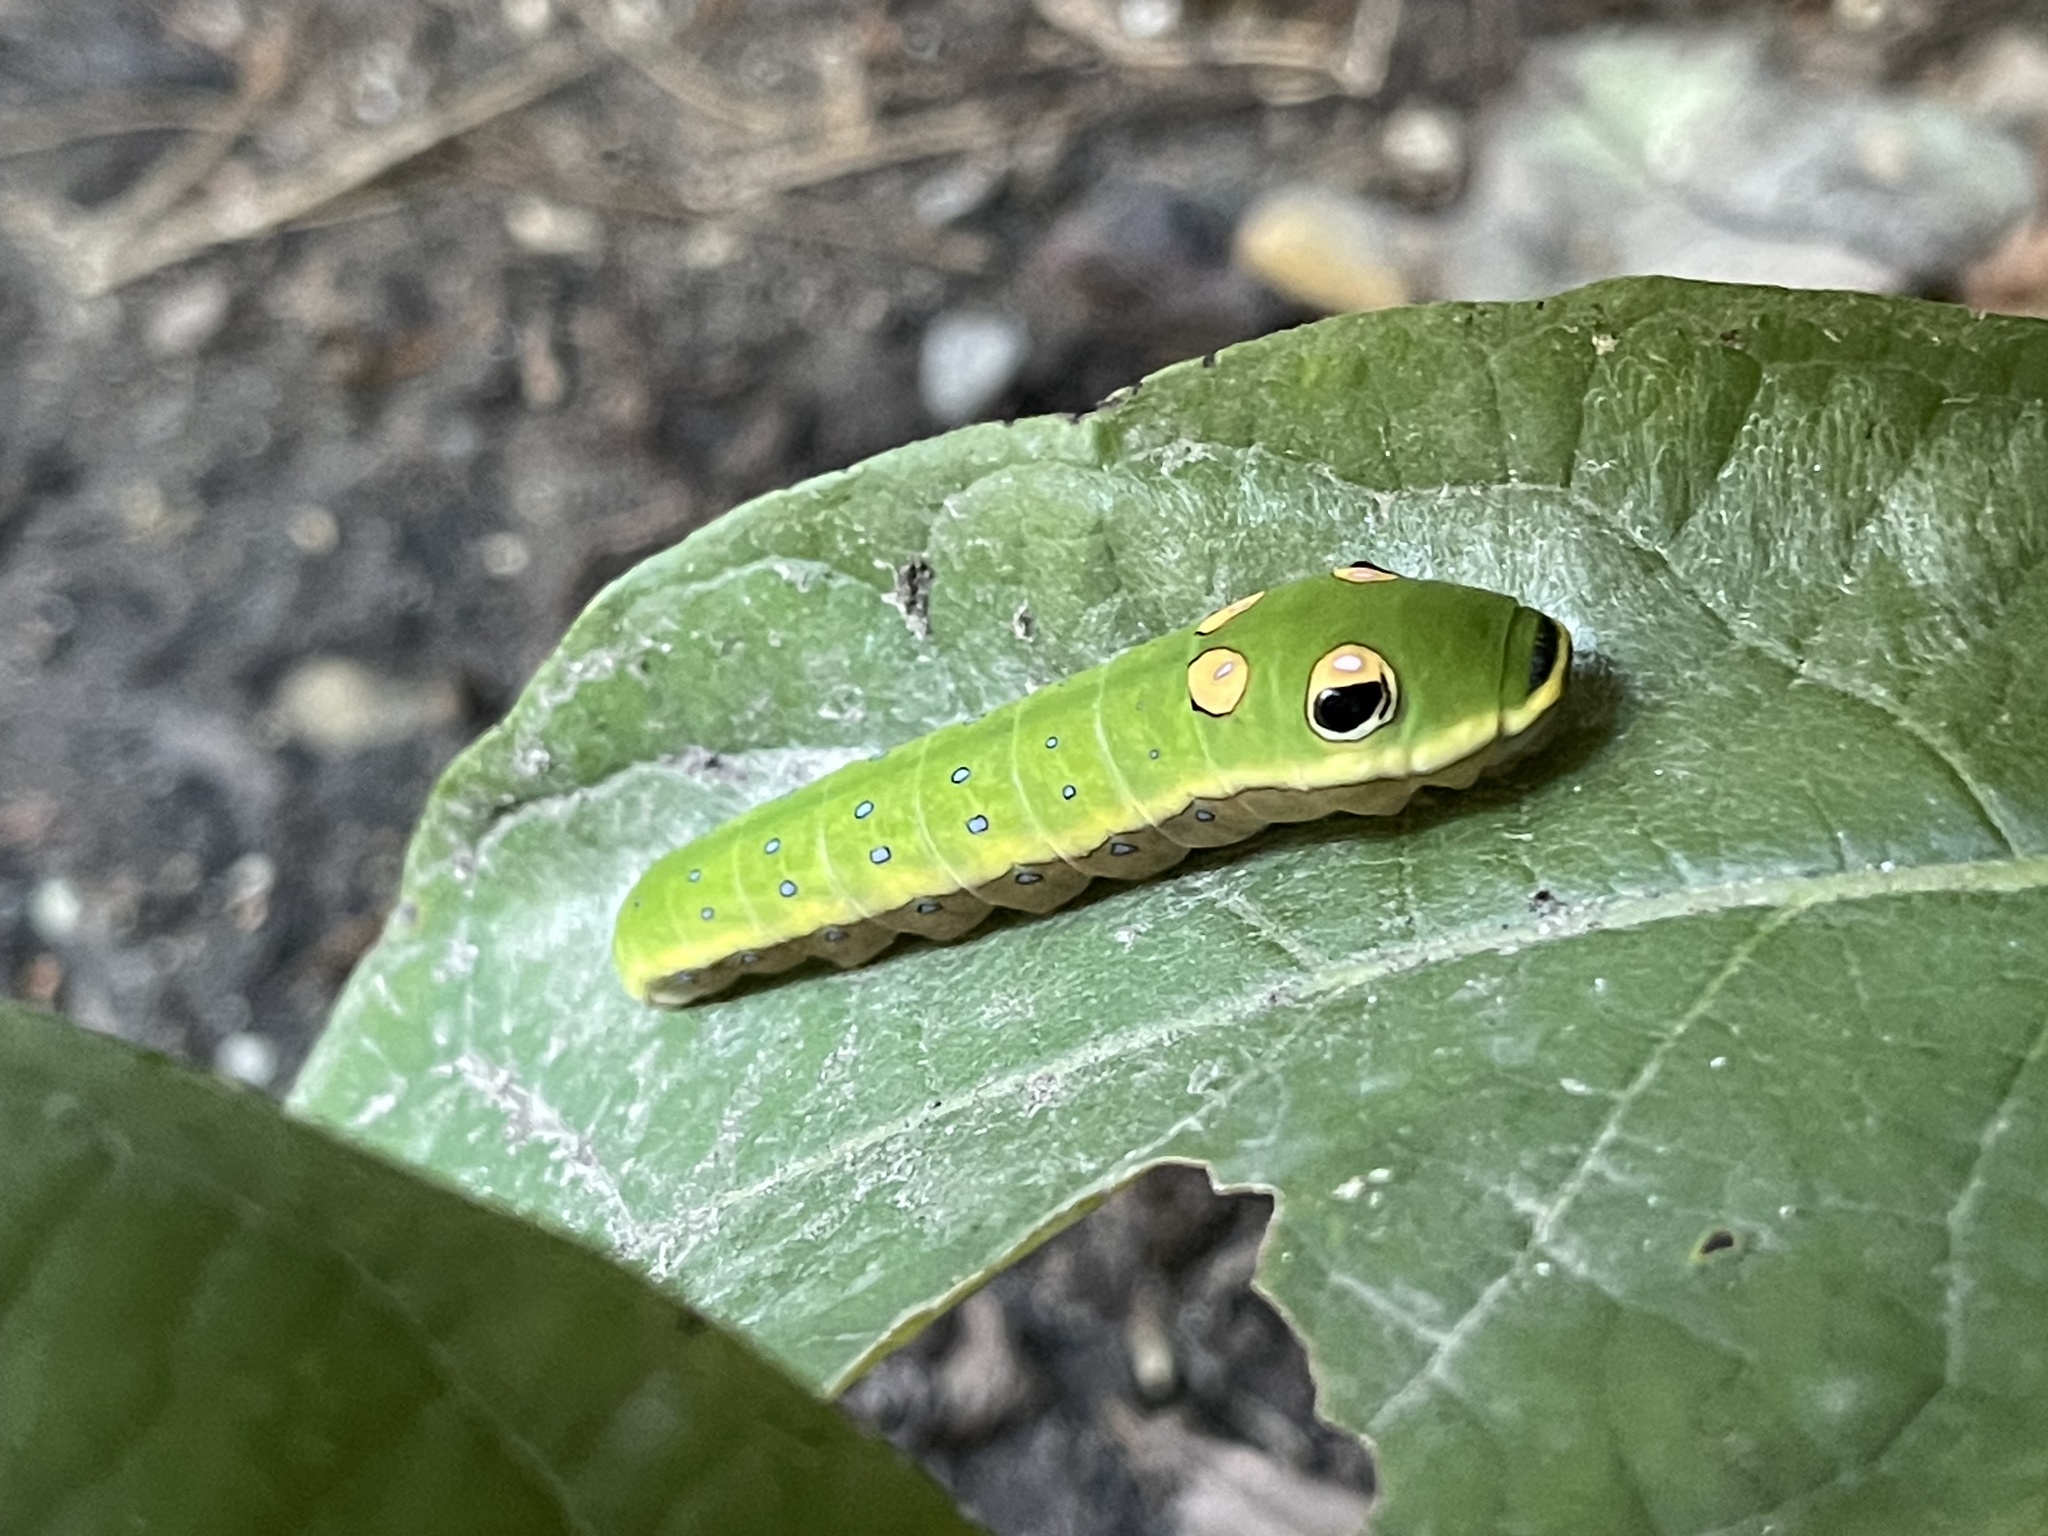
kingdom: Animalia
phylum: Arthropoda
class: Insecta
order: Lepidoptera
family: Papilionidae
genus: Papilio
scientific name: Papilio troilus
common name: Spicebush swallowtail
